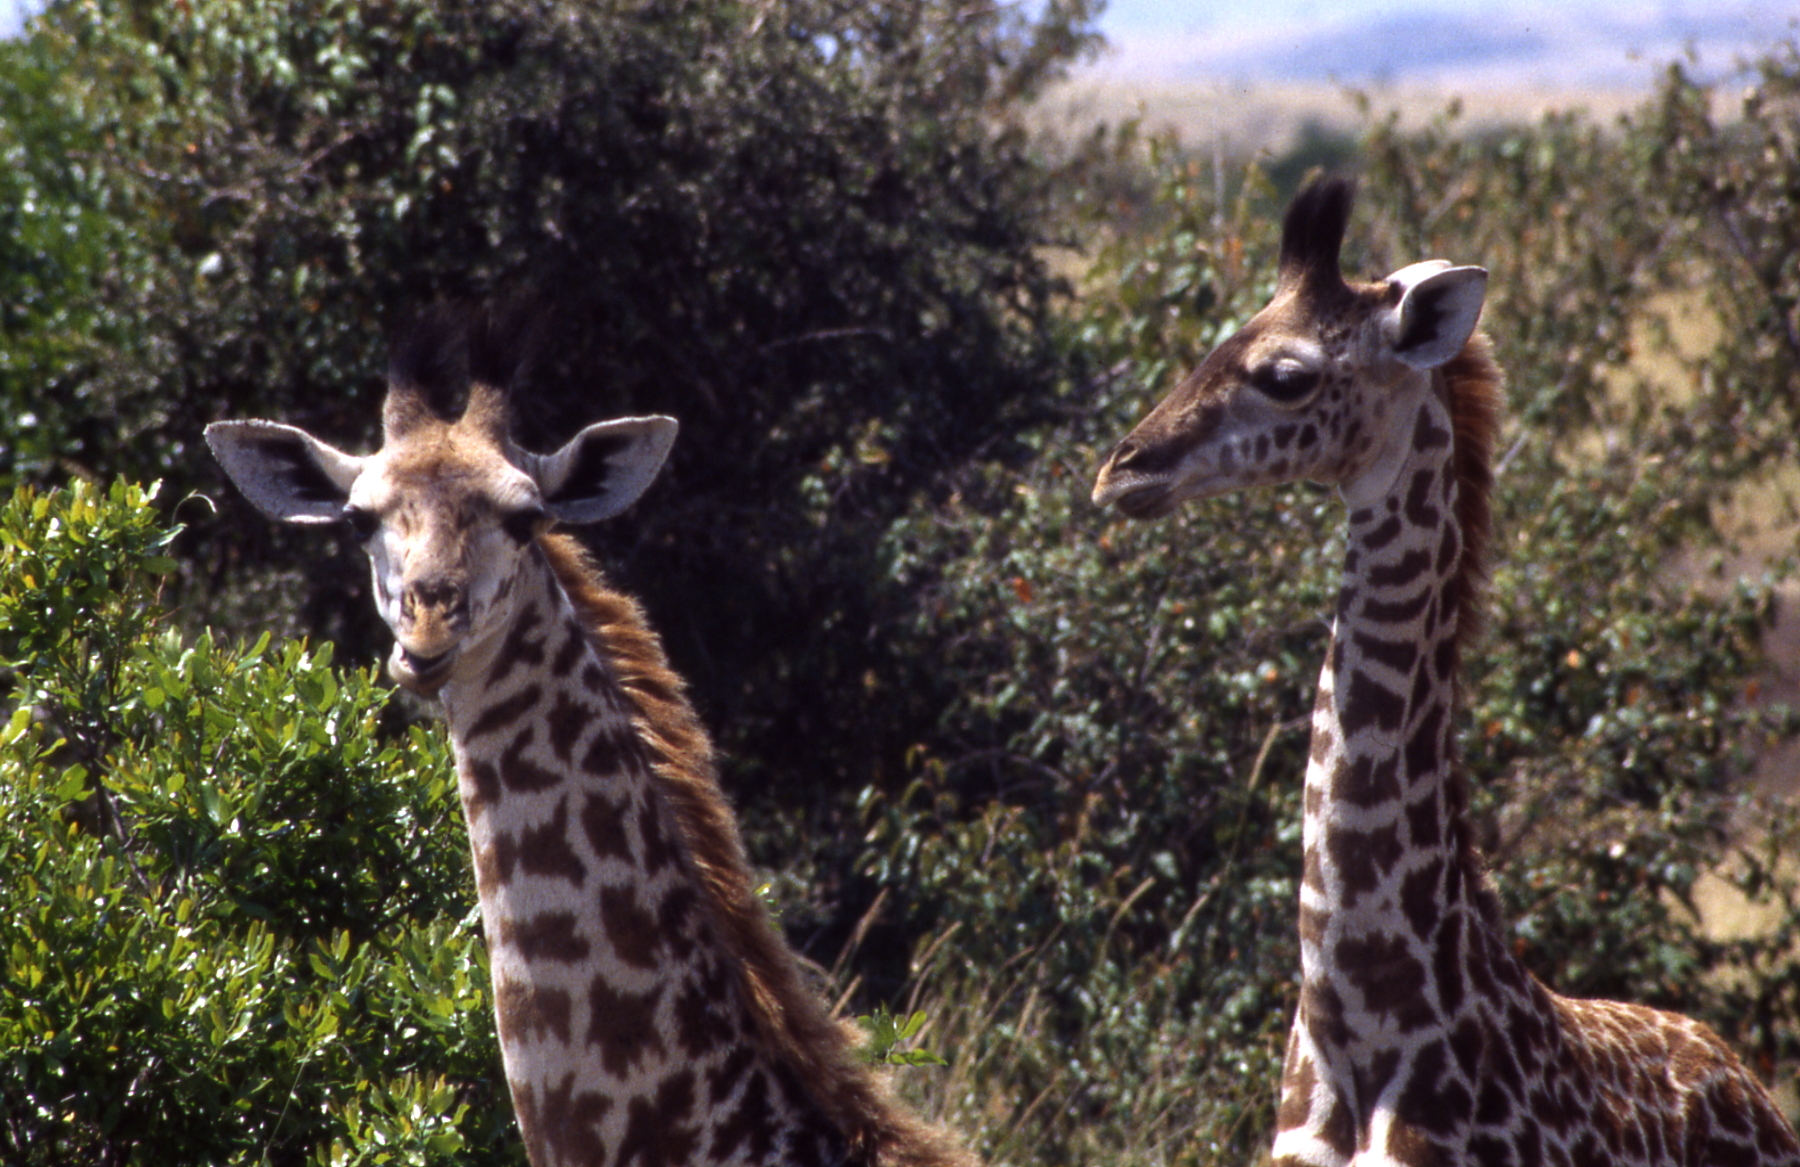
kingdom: Animalia
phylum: Chordata
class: Mammalia
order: Artiodactyla
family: Giraffidae
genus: Giraffa
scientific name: Giraffa tippelskirchi
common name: Masai giraffe
